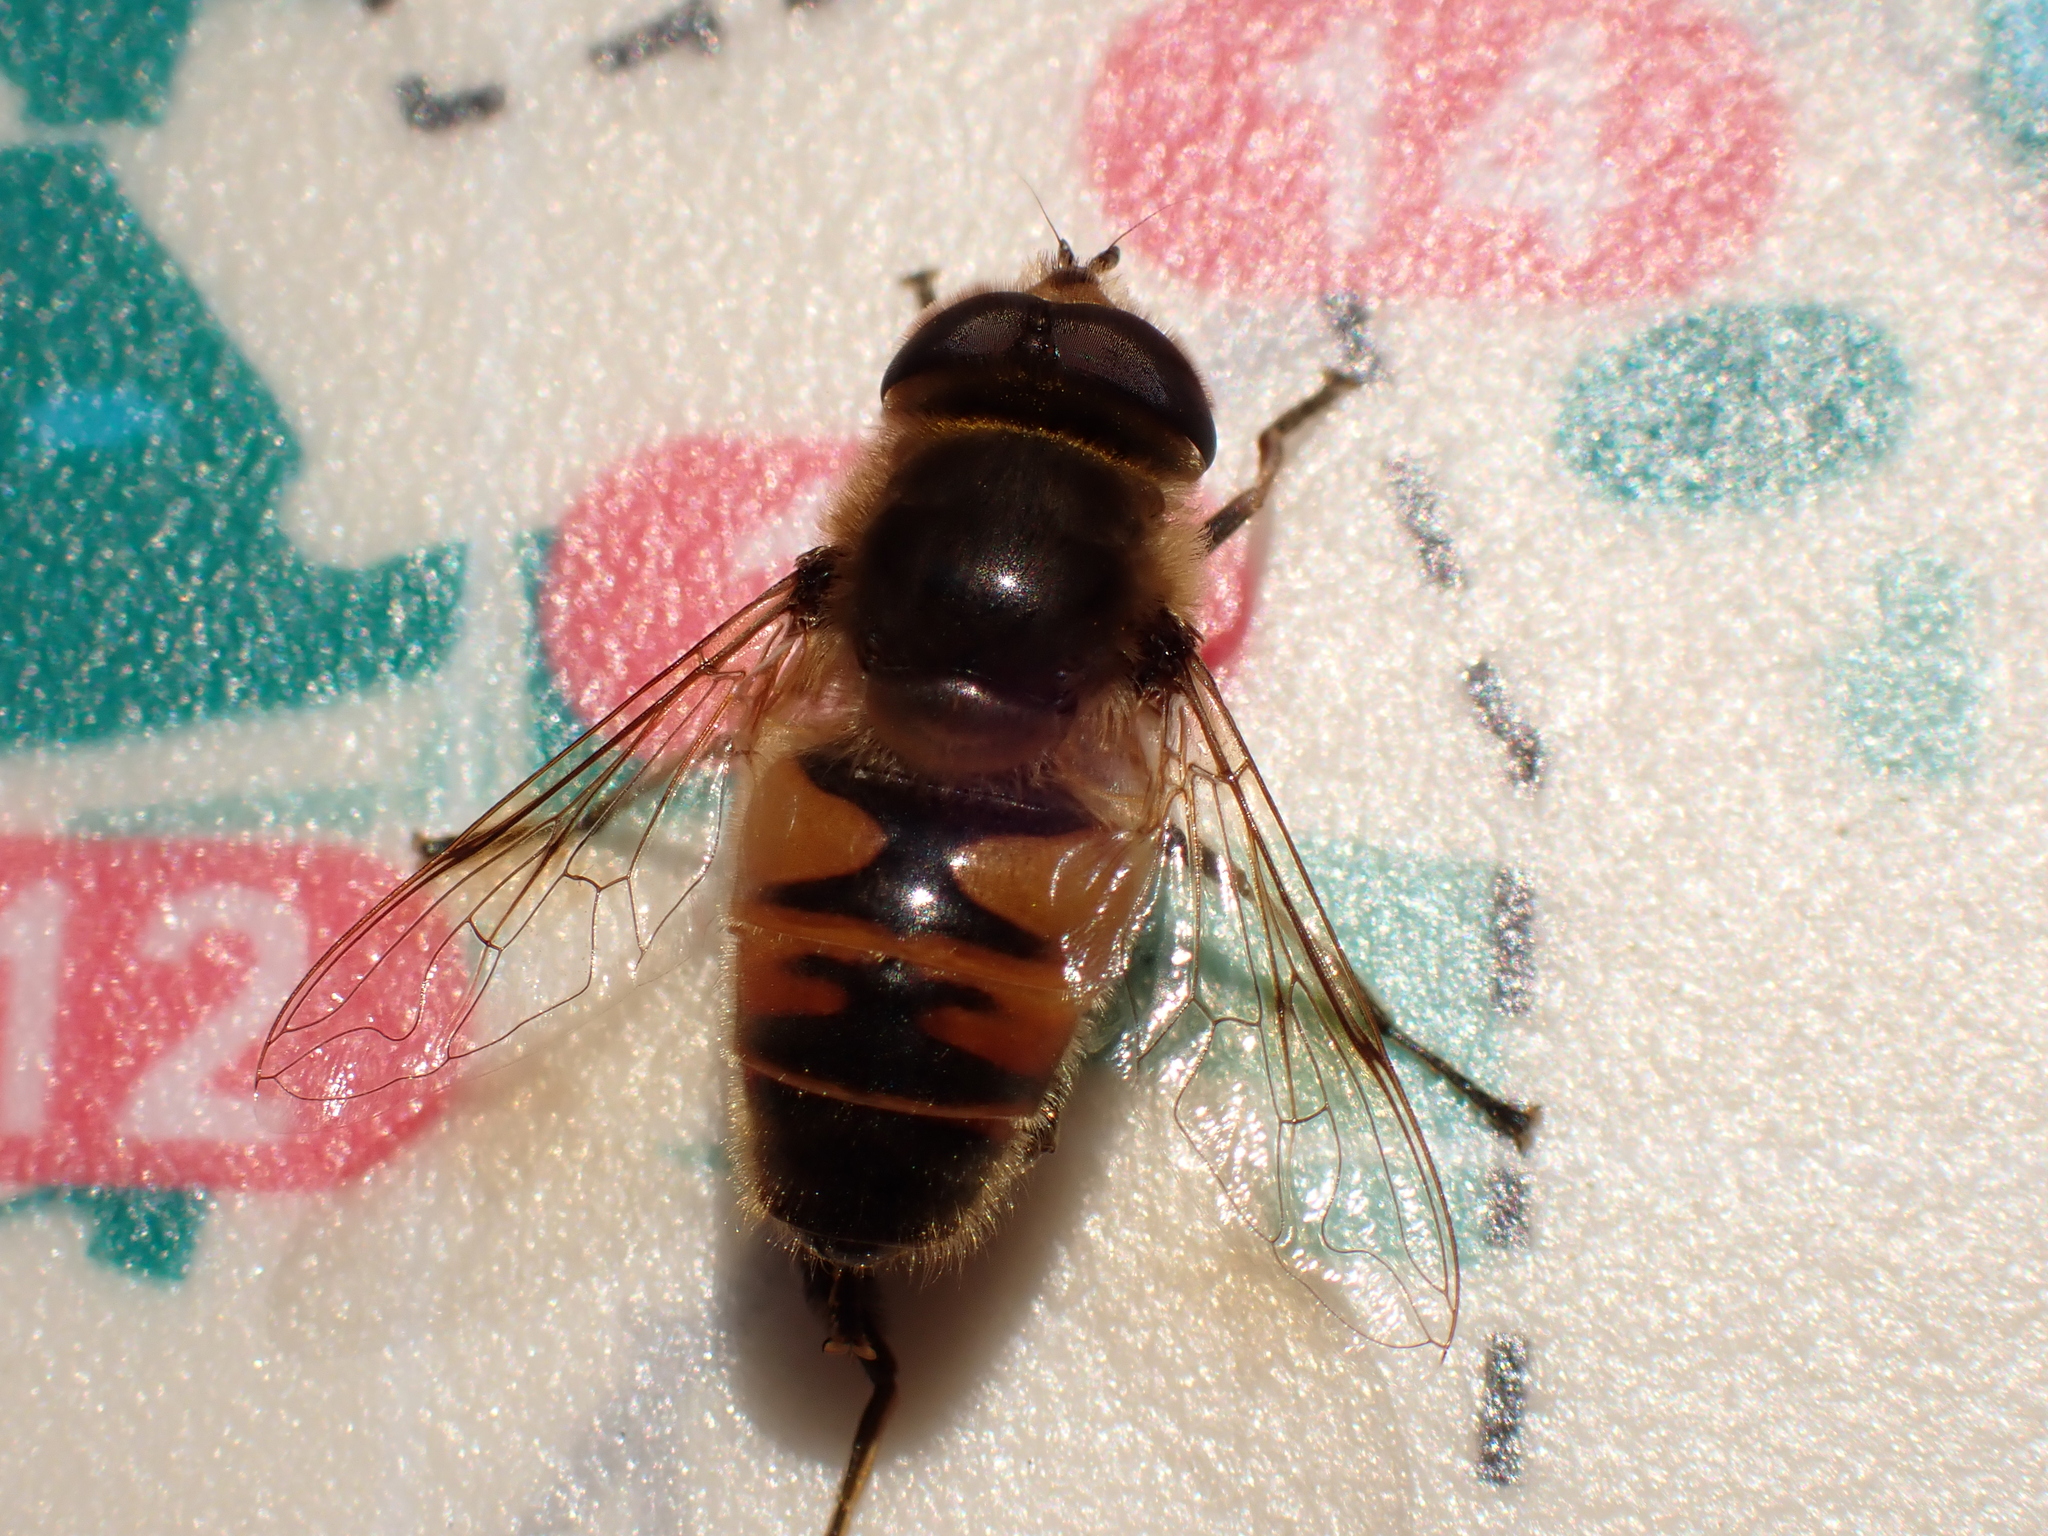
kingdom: Animalia
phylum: Arthropoda
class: Insecta
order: Diptera
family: Syrphidae
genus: Eristalis
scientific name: Eristalis tenax
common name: Drone fly
